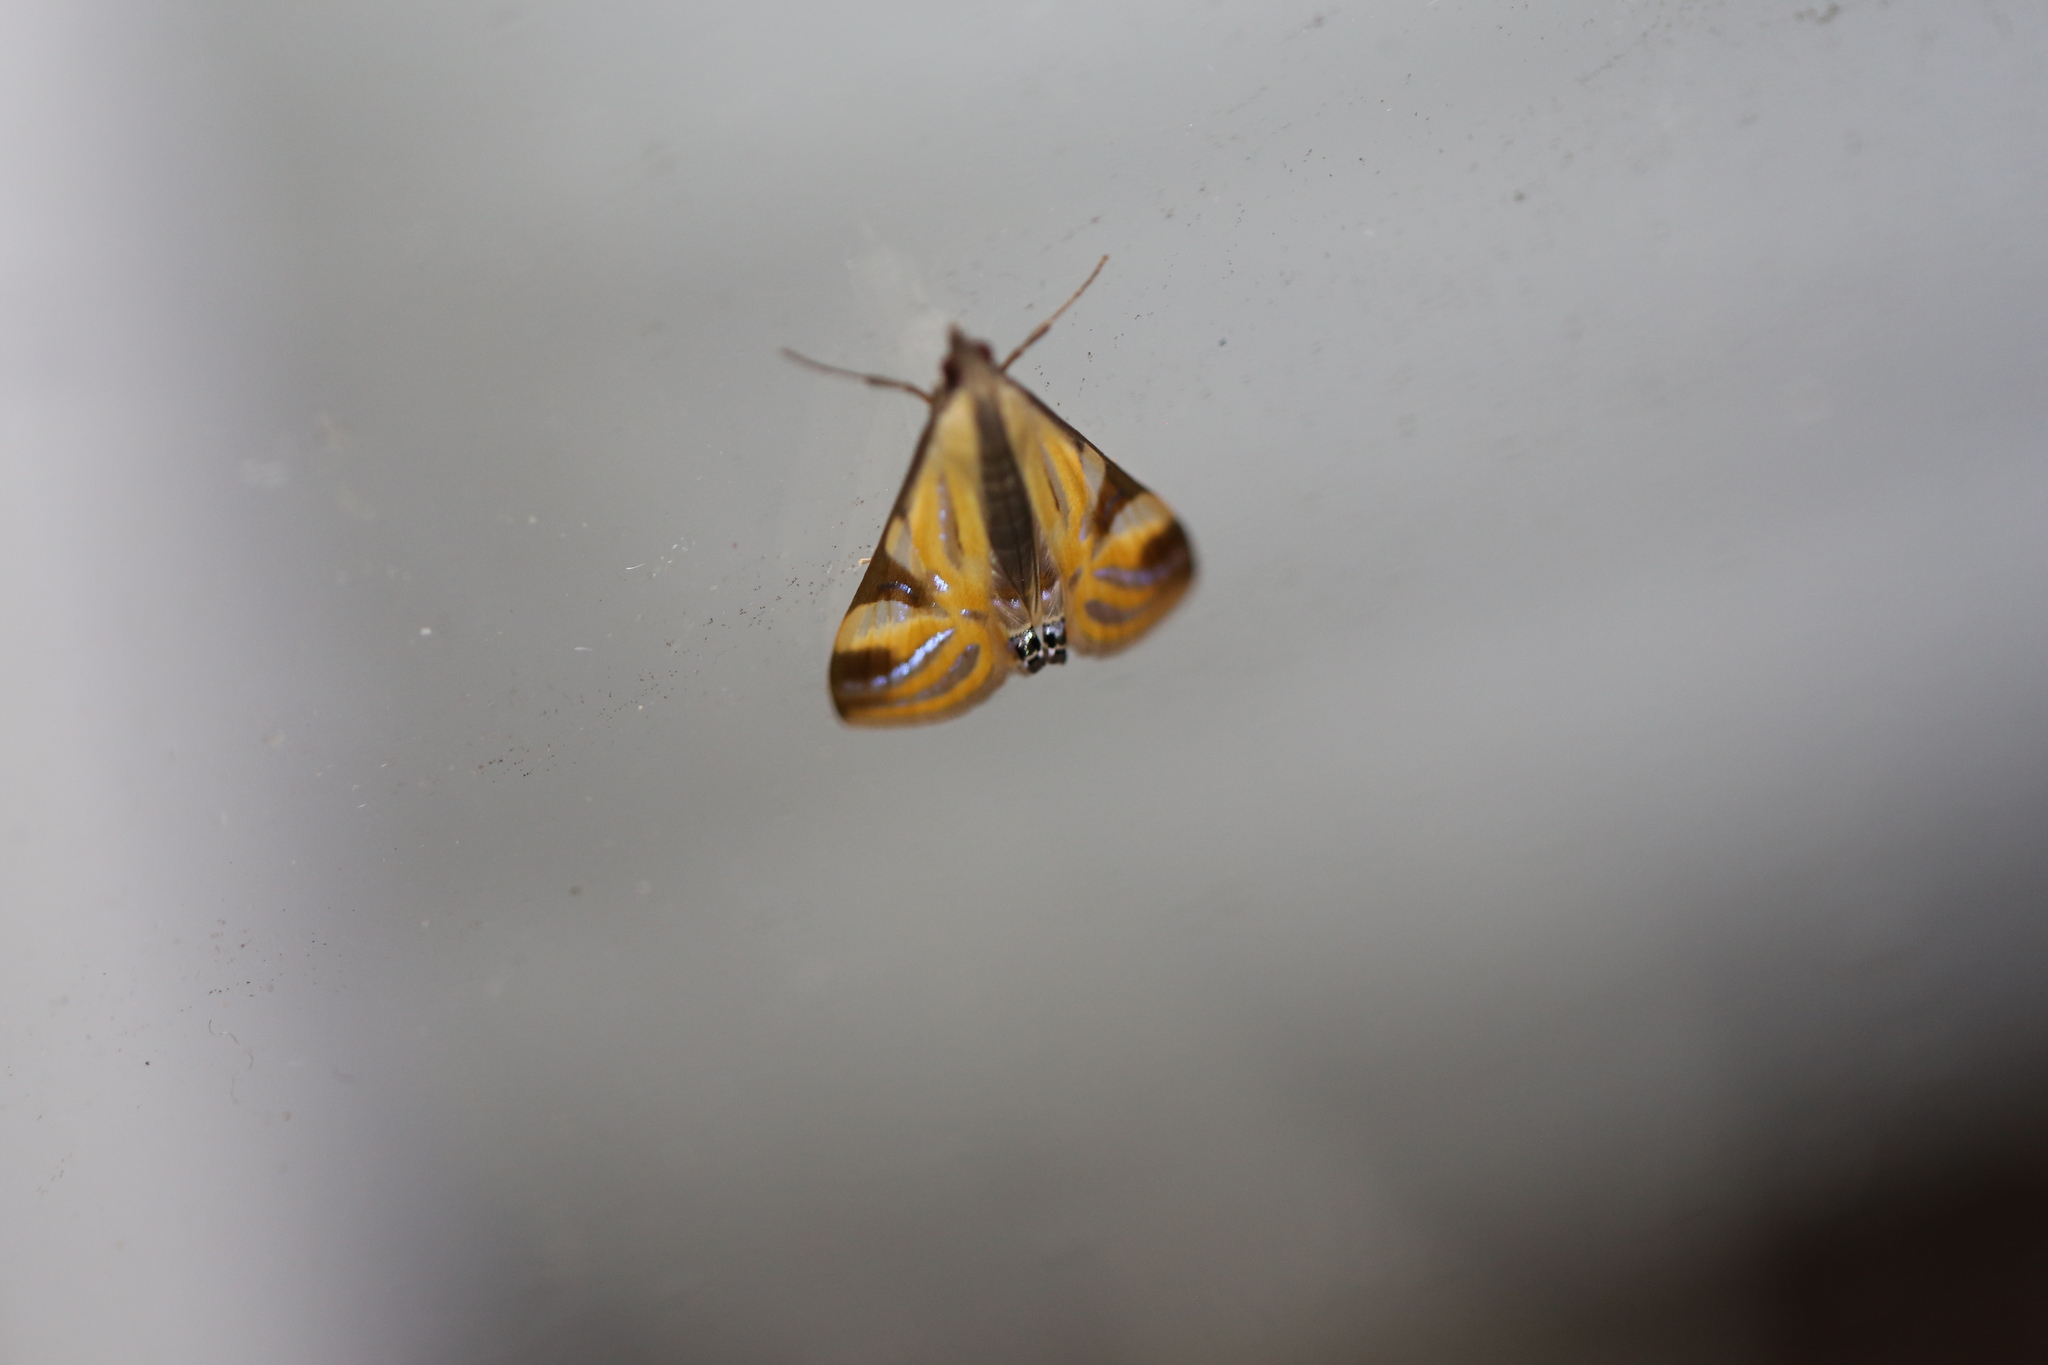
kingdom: Animalia
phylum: Arthropoda
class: Insecta
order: Lepidoptera
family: Crambidae
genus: Talanga
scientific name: Talanga tolumnialis
